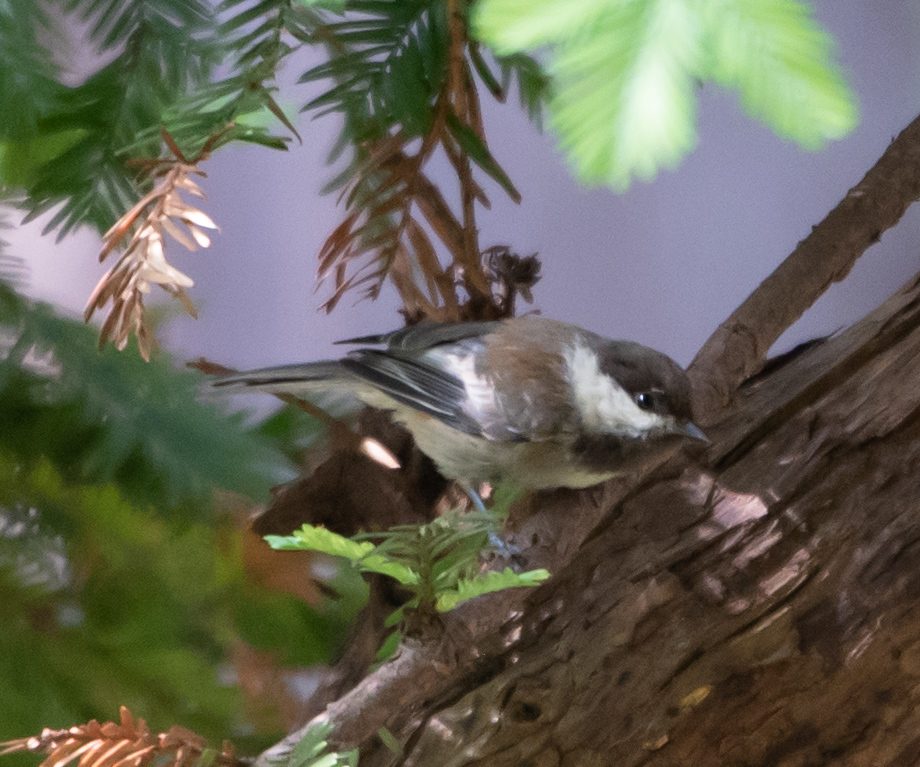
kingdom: Animalia
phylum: Chordata
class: Aves
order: Passeriformes
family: Paridae
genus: Poecile
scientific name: Poecile rufescens
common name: Chestnut-backed chickadee
